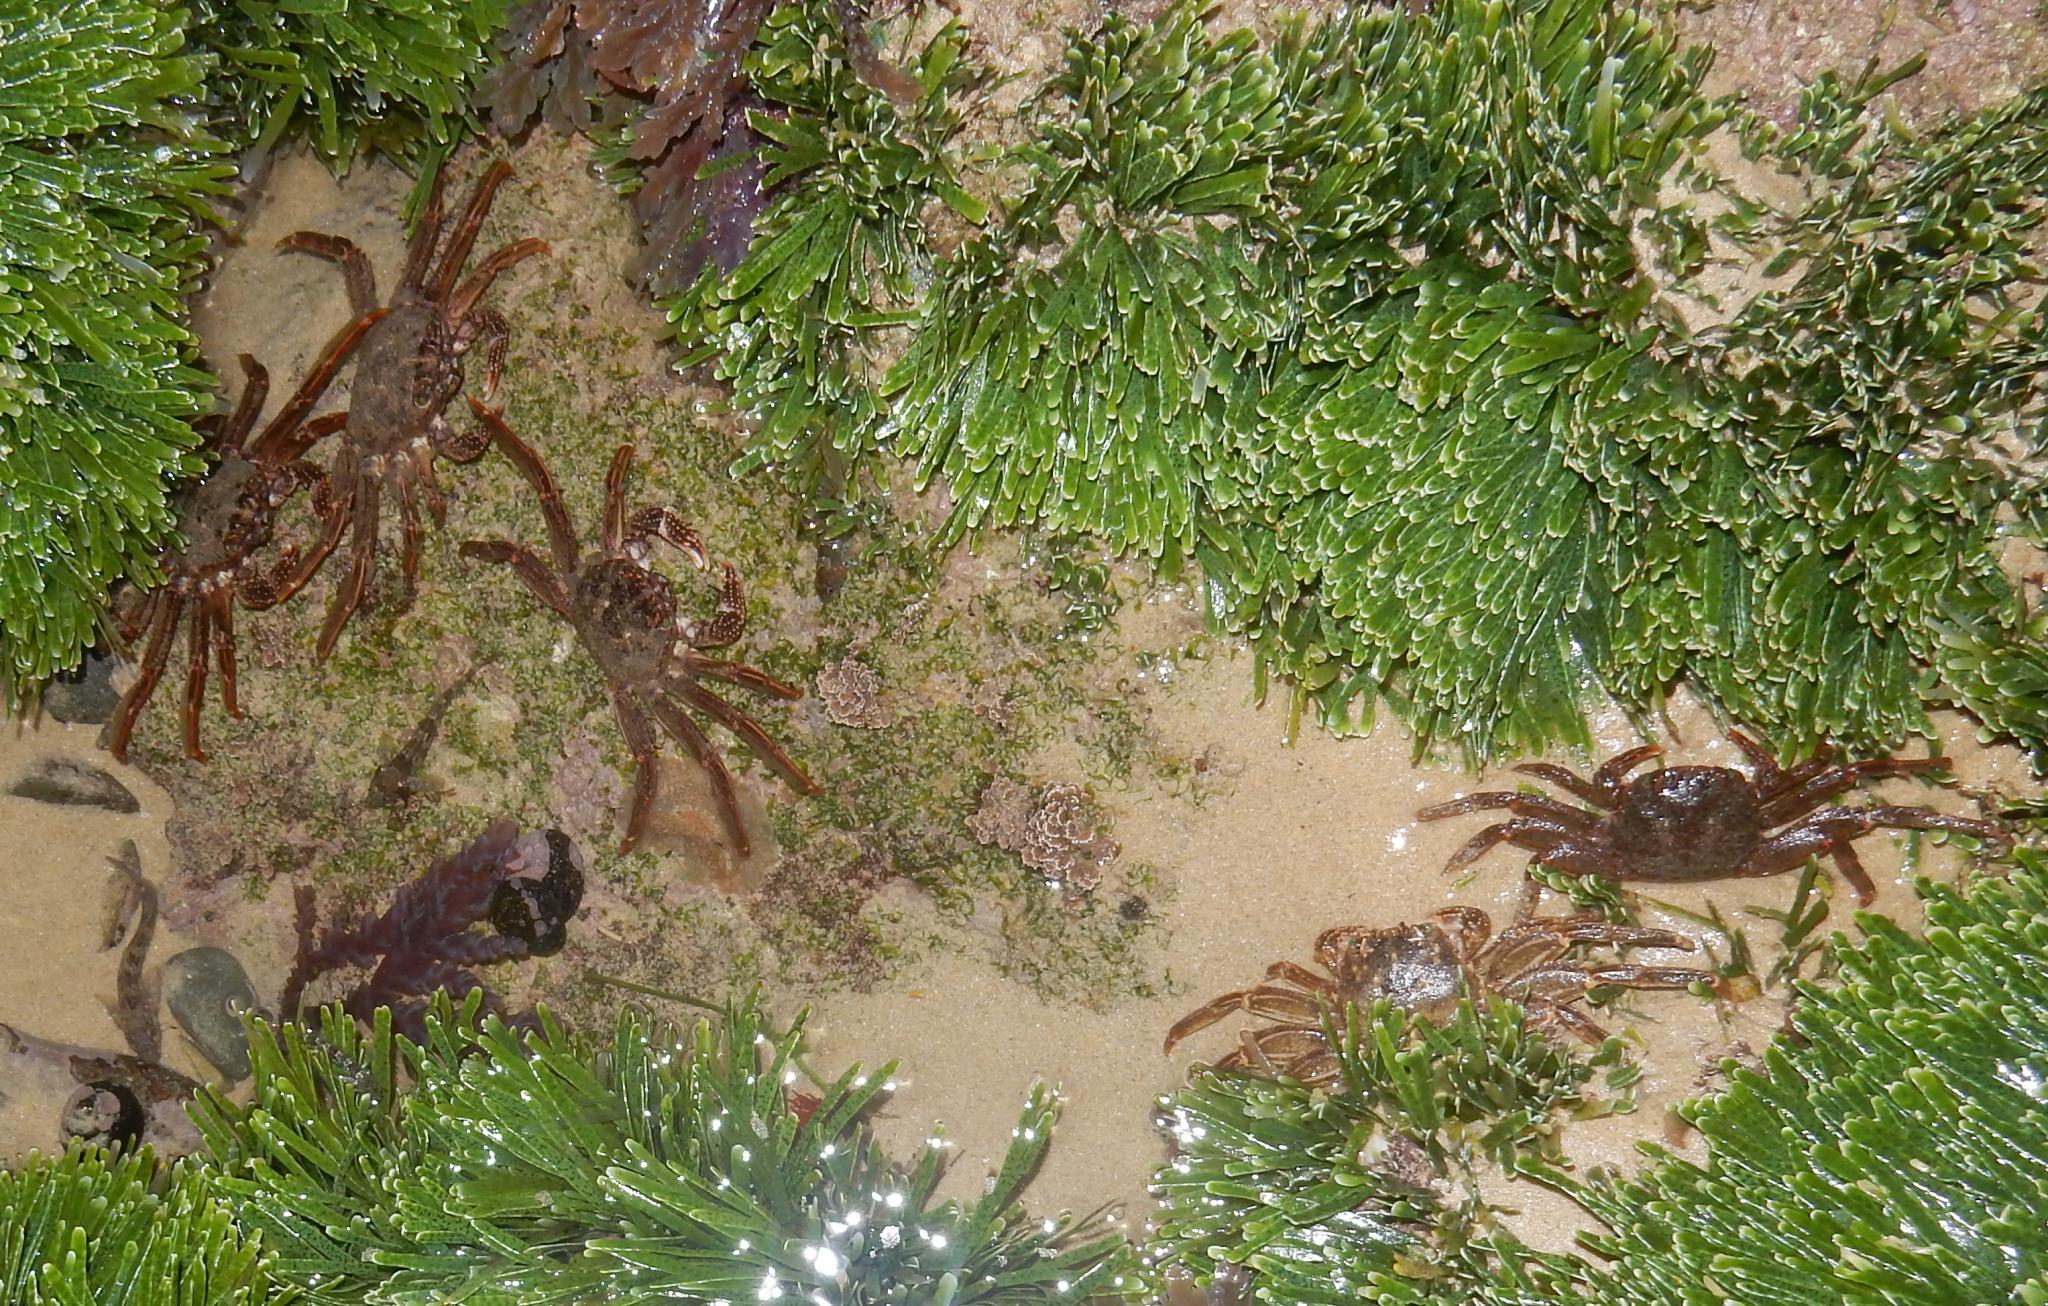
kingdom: Animalia
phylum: Arthropoda
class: Malacostraca
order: Decapoda
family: Plagusiidae
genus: Guinusia
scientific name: Guinusia chabrus
